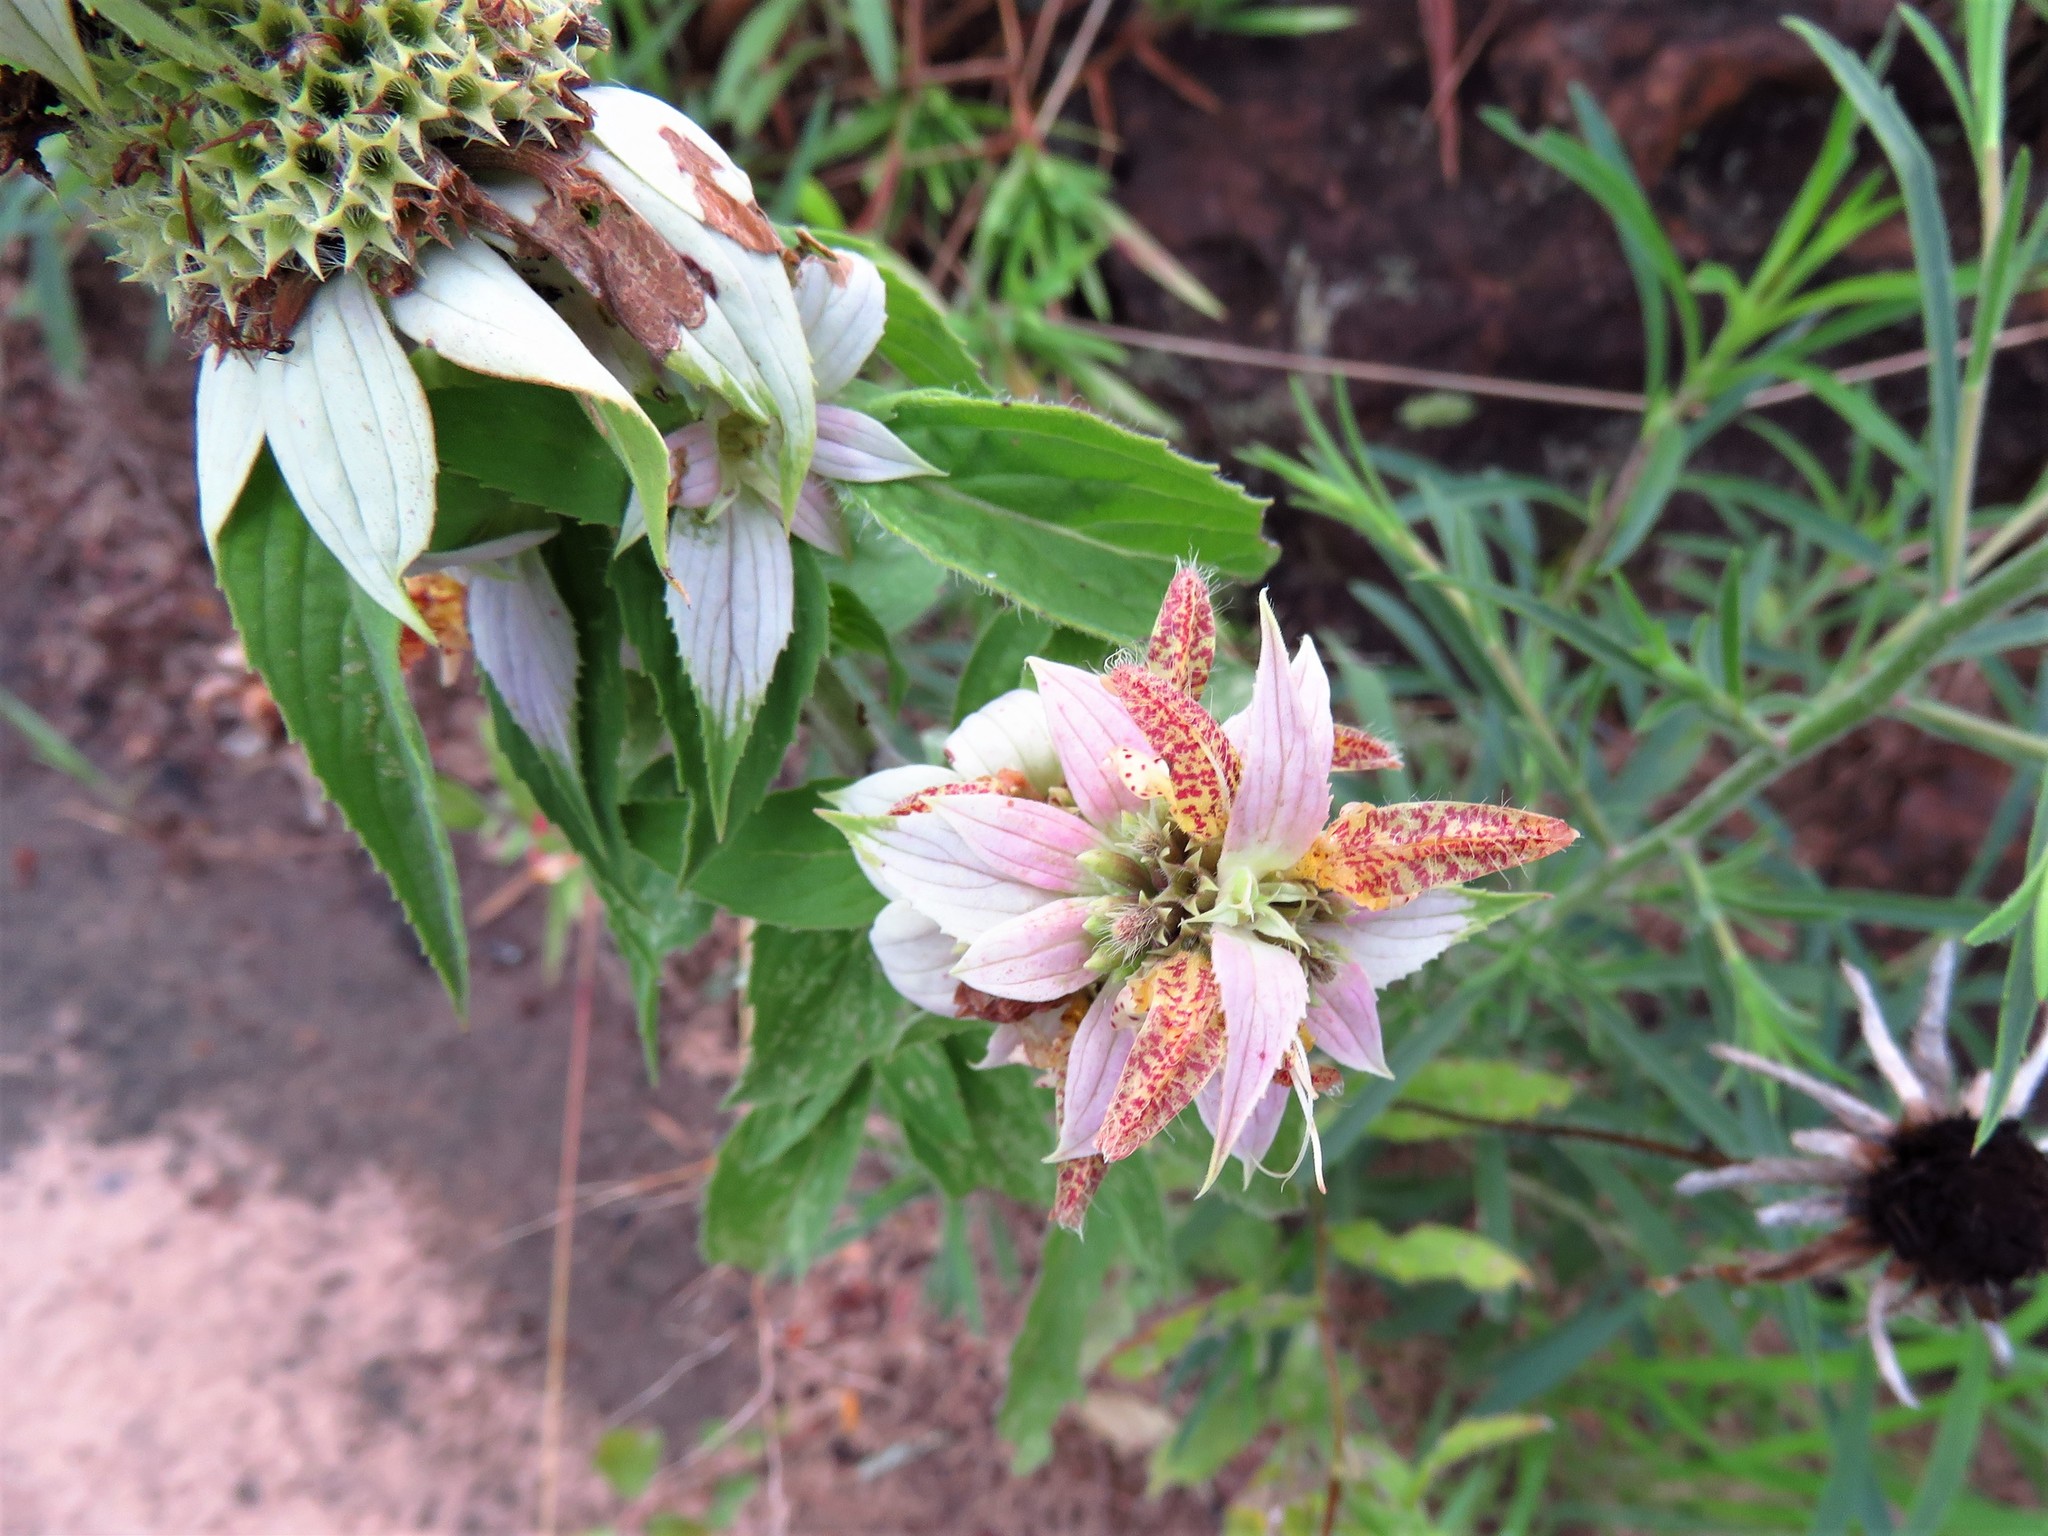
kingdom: Plantae
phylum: Tracheophyta
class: Magnoliopsida
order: Lamiales
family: Lamiaceae
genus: Monarda
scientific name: Monarda punctata
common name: Dotted monarda
